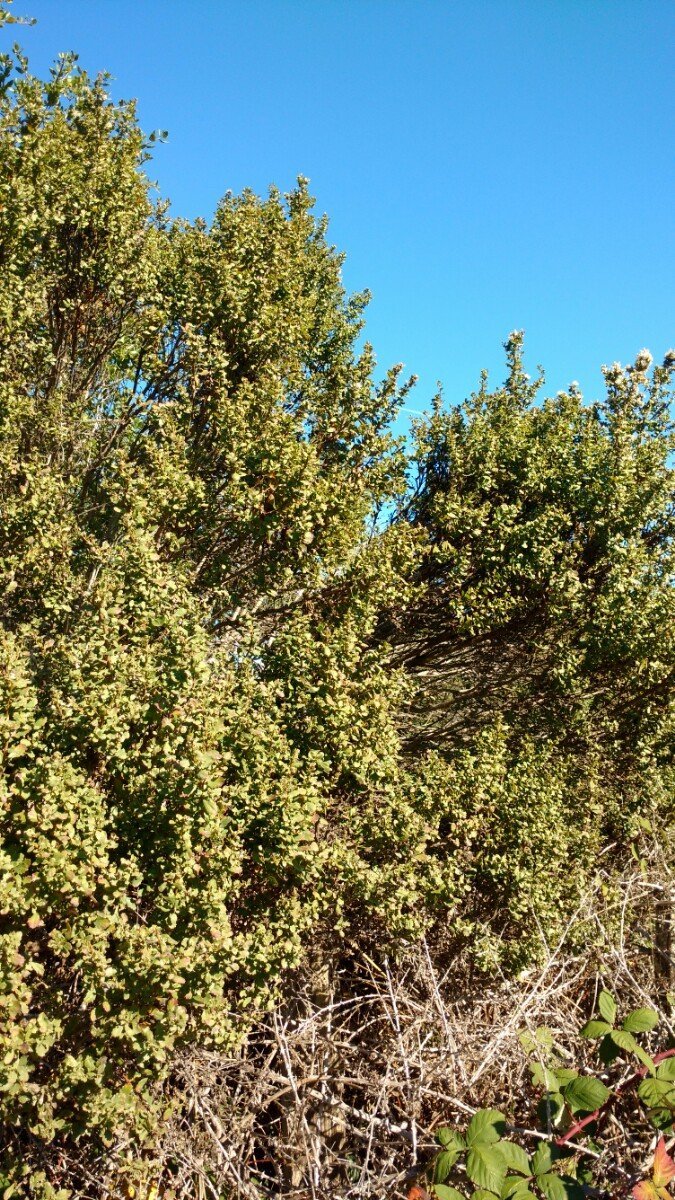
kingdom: Plantae
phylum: Tracheophyta
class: Magnoliopsida
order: Asterales
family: Asteraceae
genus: Baccharis
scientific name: Baccharis pilularis
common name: Coyotebrush
